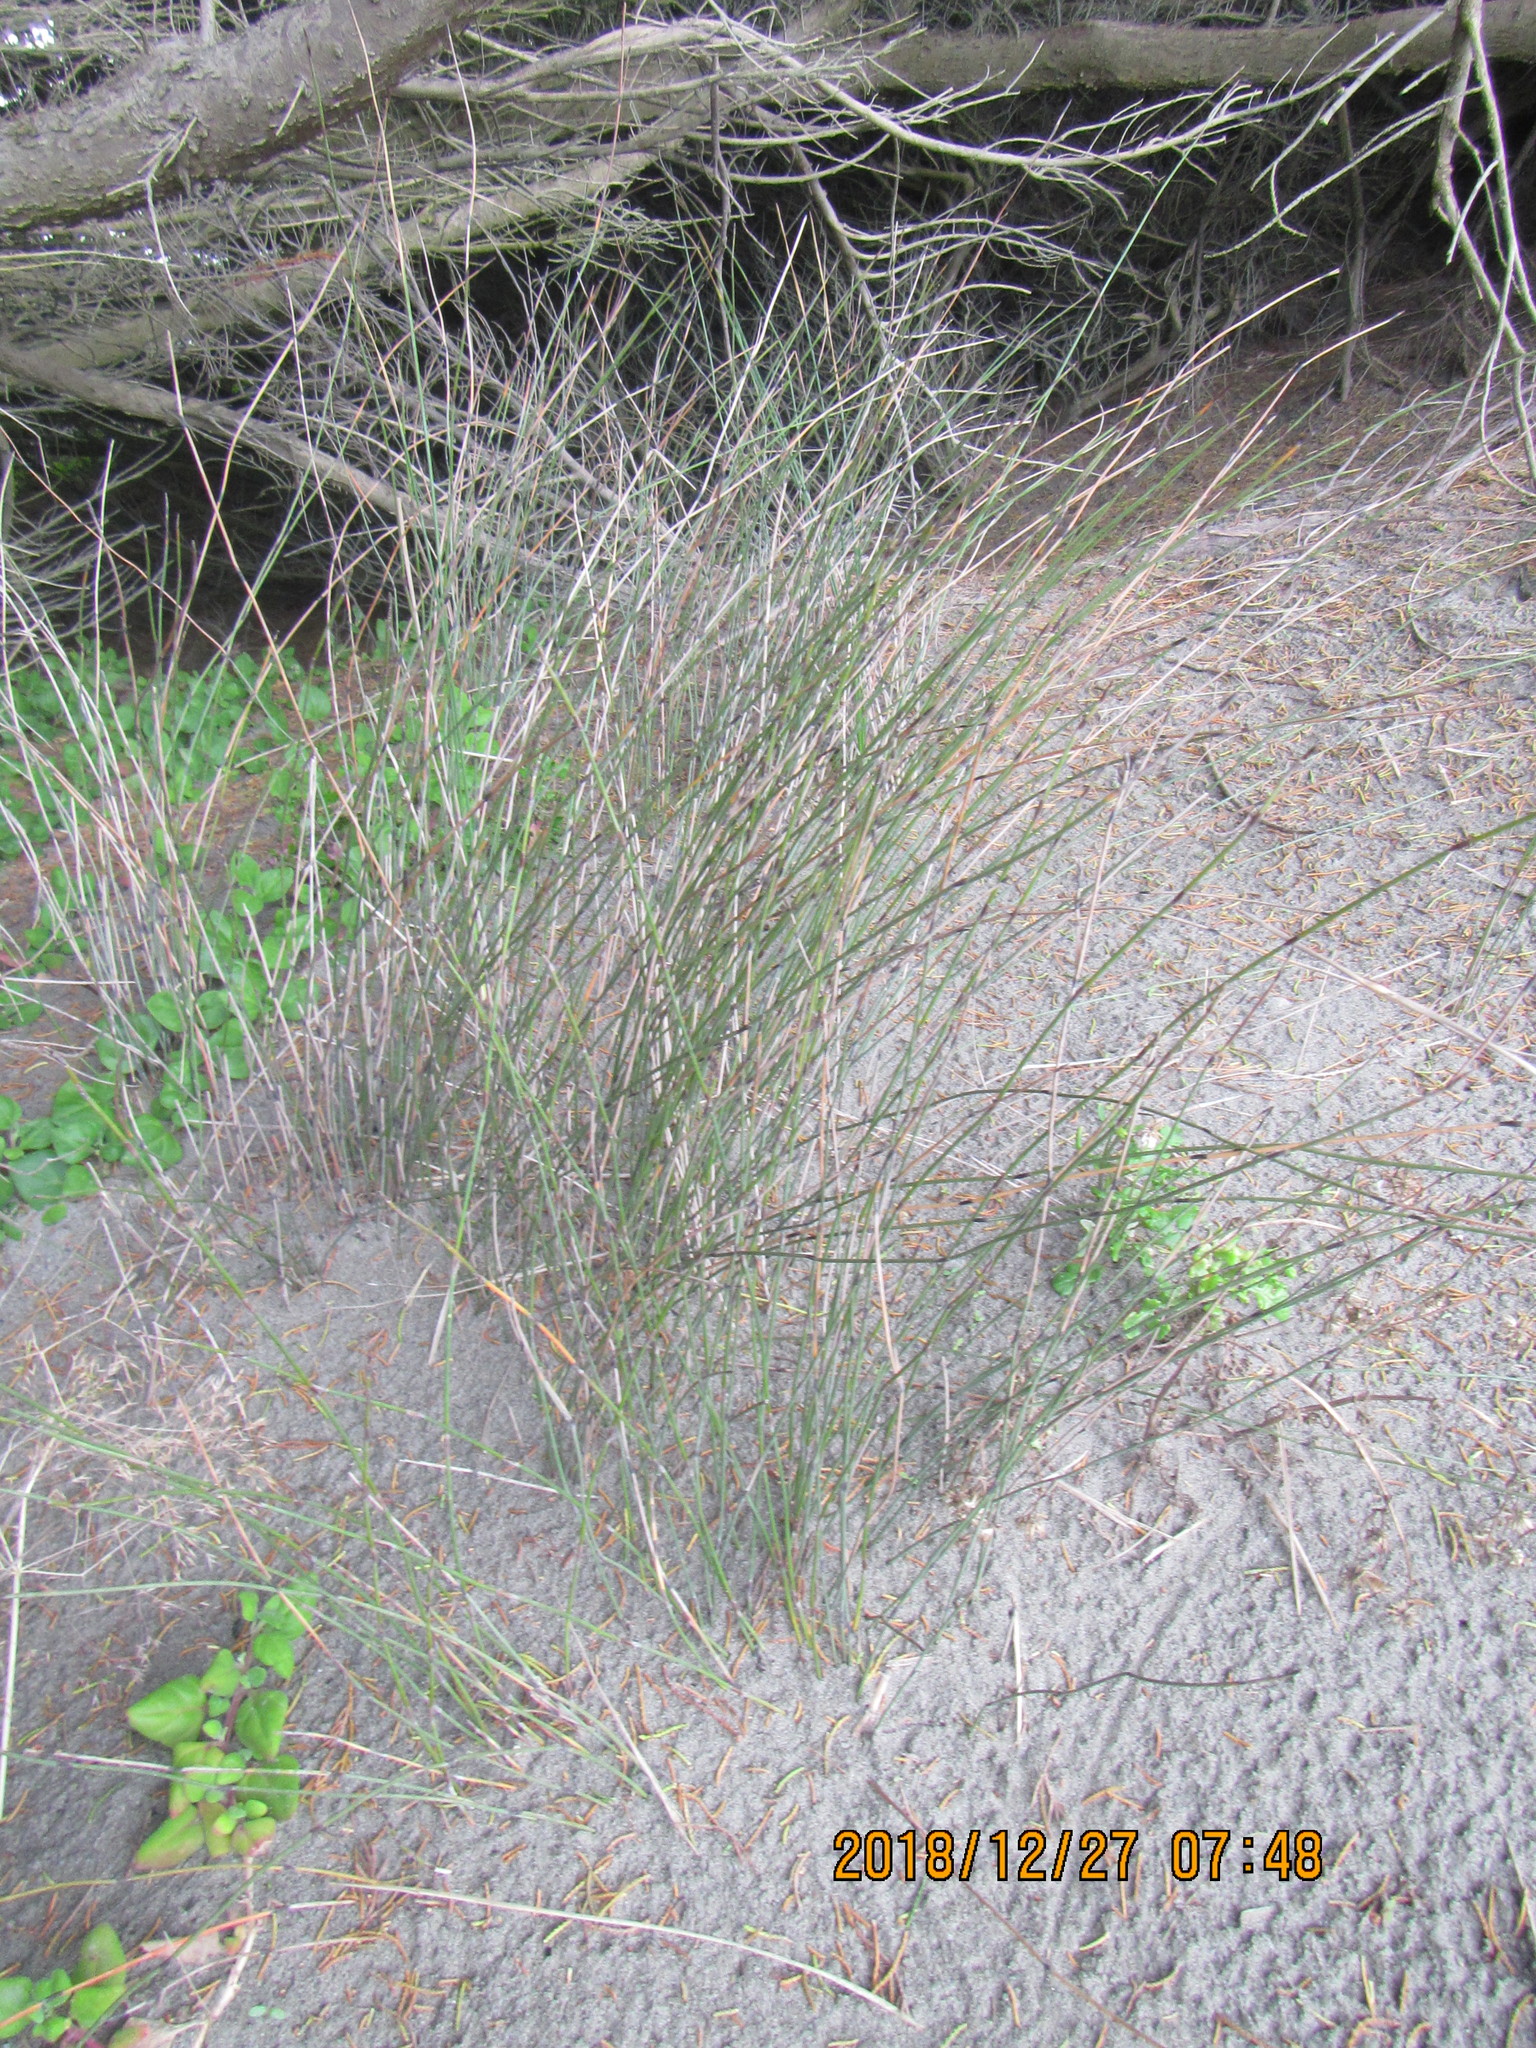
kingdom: Plantae
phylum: Tracheophyta
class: Liliopsida
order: Poales
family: Restionaceae
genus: Apodasmia
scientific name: Apodasmia similis
